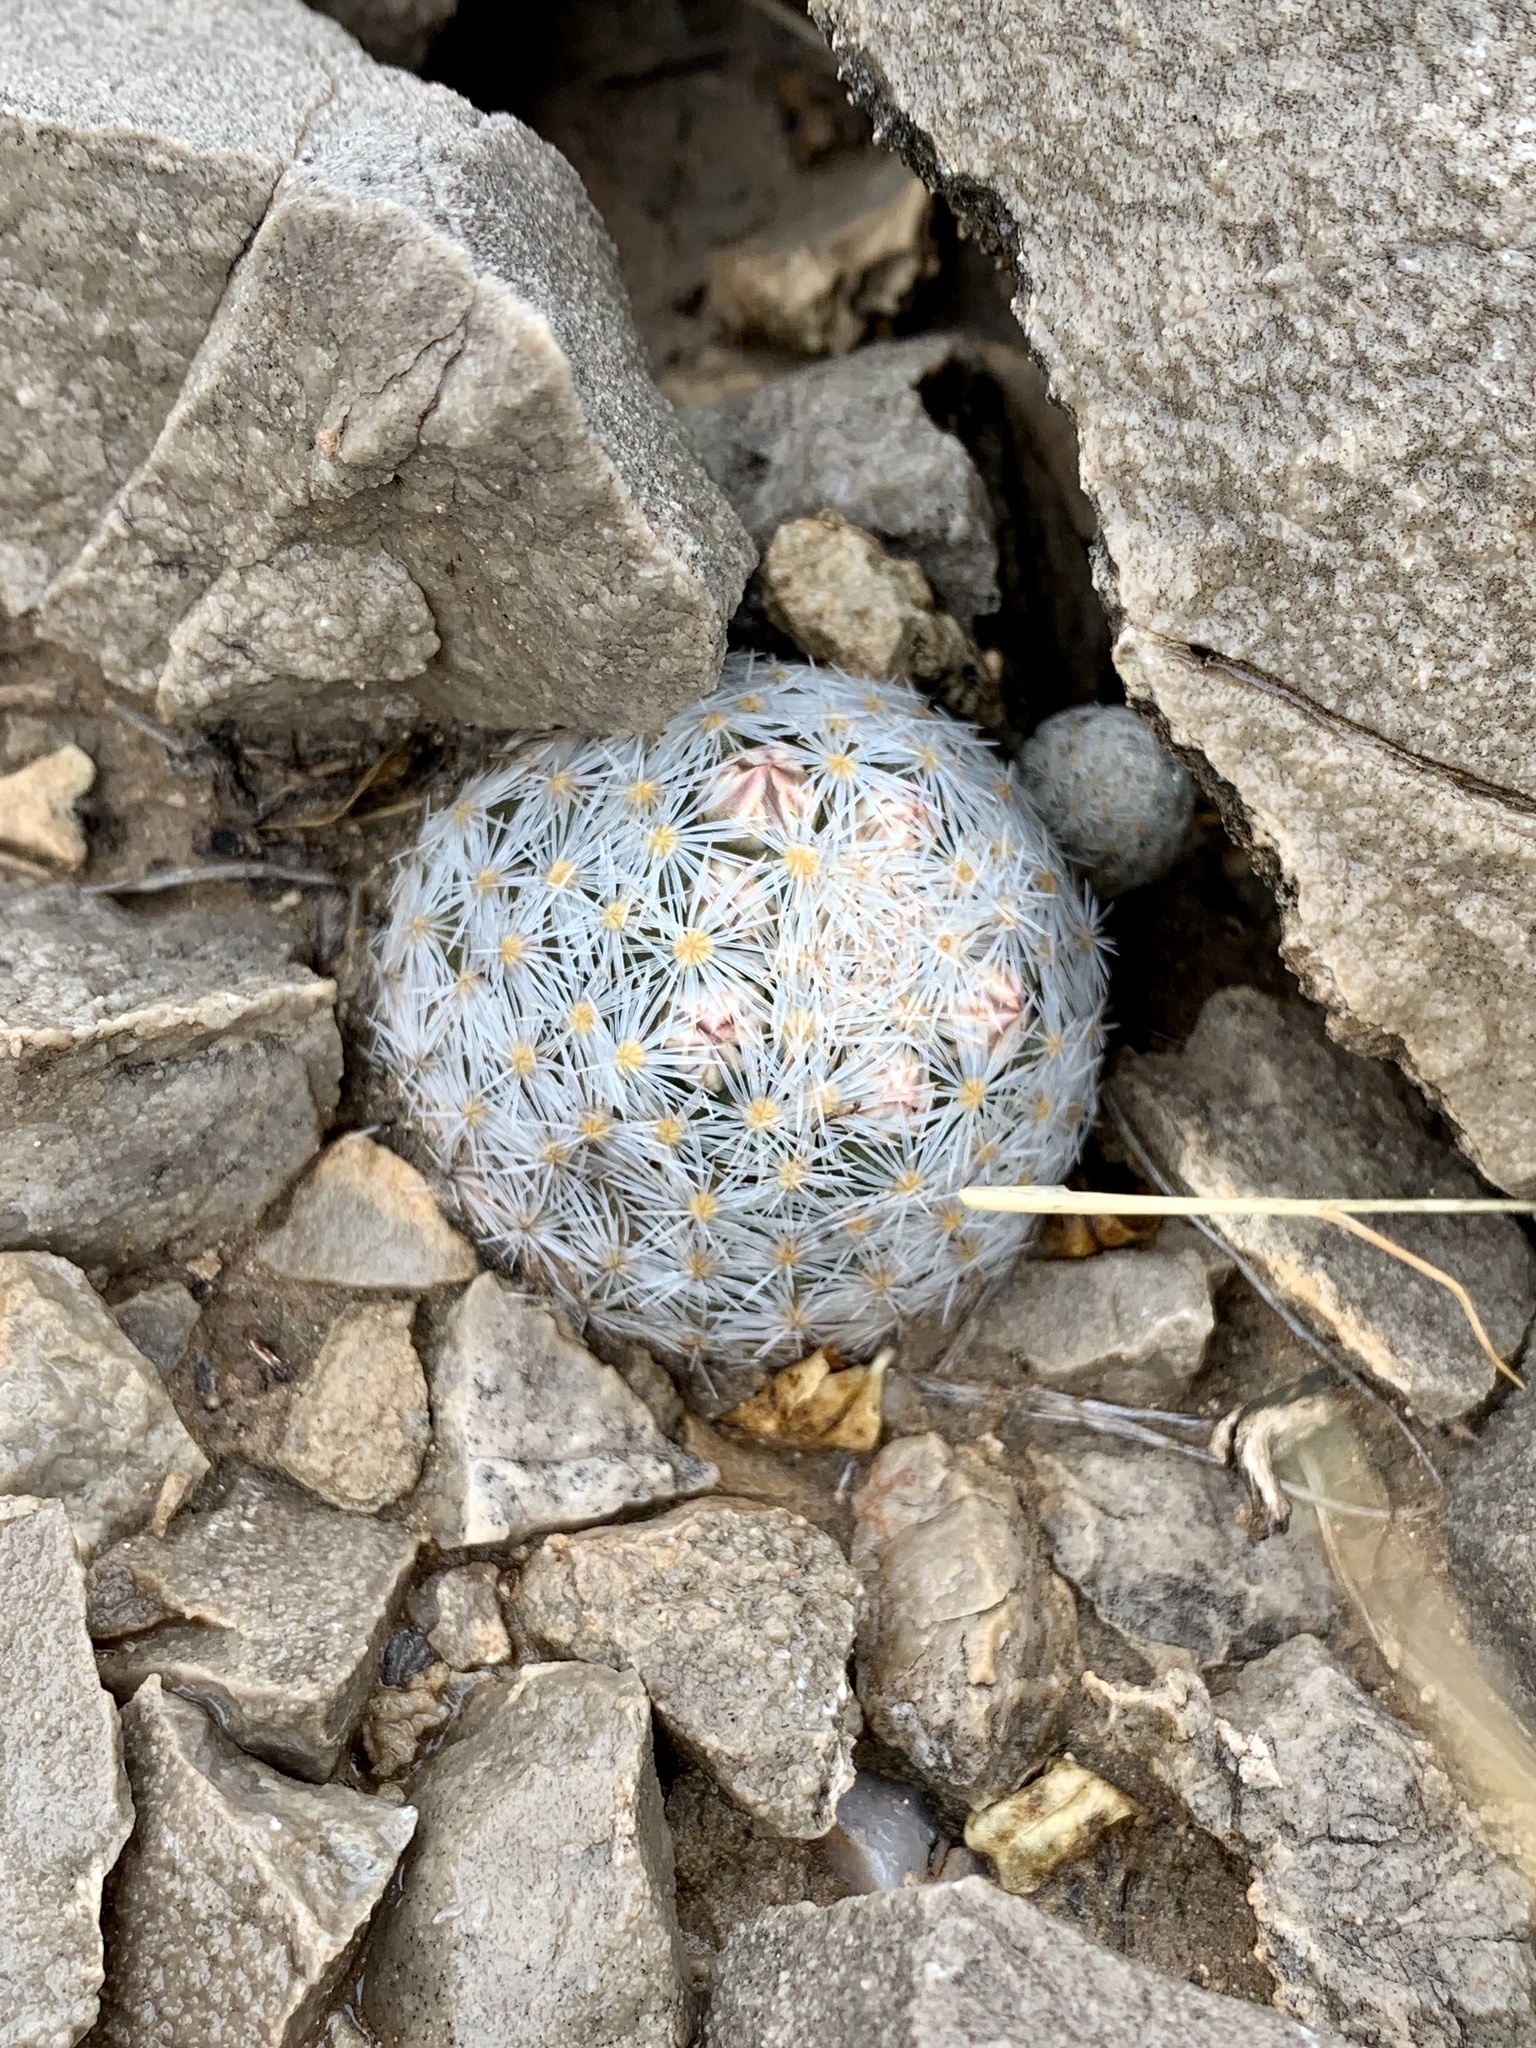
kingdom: Plantae
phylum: Tracheophyta
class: Magnoliopsida
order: Caryophyllales
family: Cactaceae
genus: Mammillaria
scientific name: Mammillaria lasiacantha
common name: Lace-spine nipple cactus
